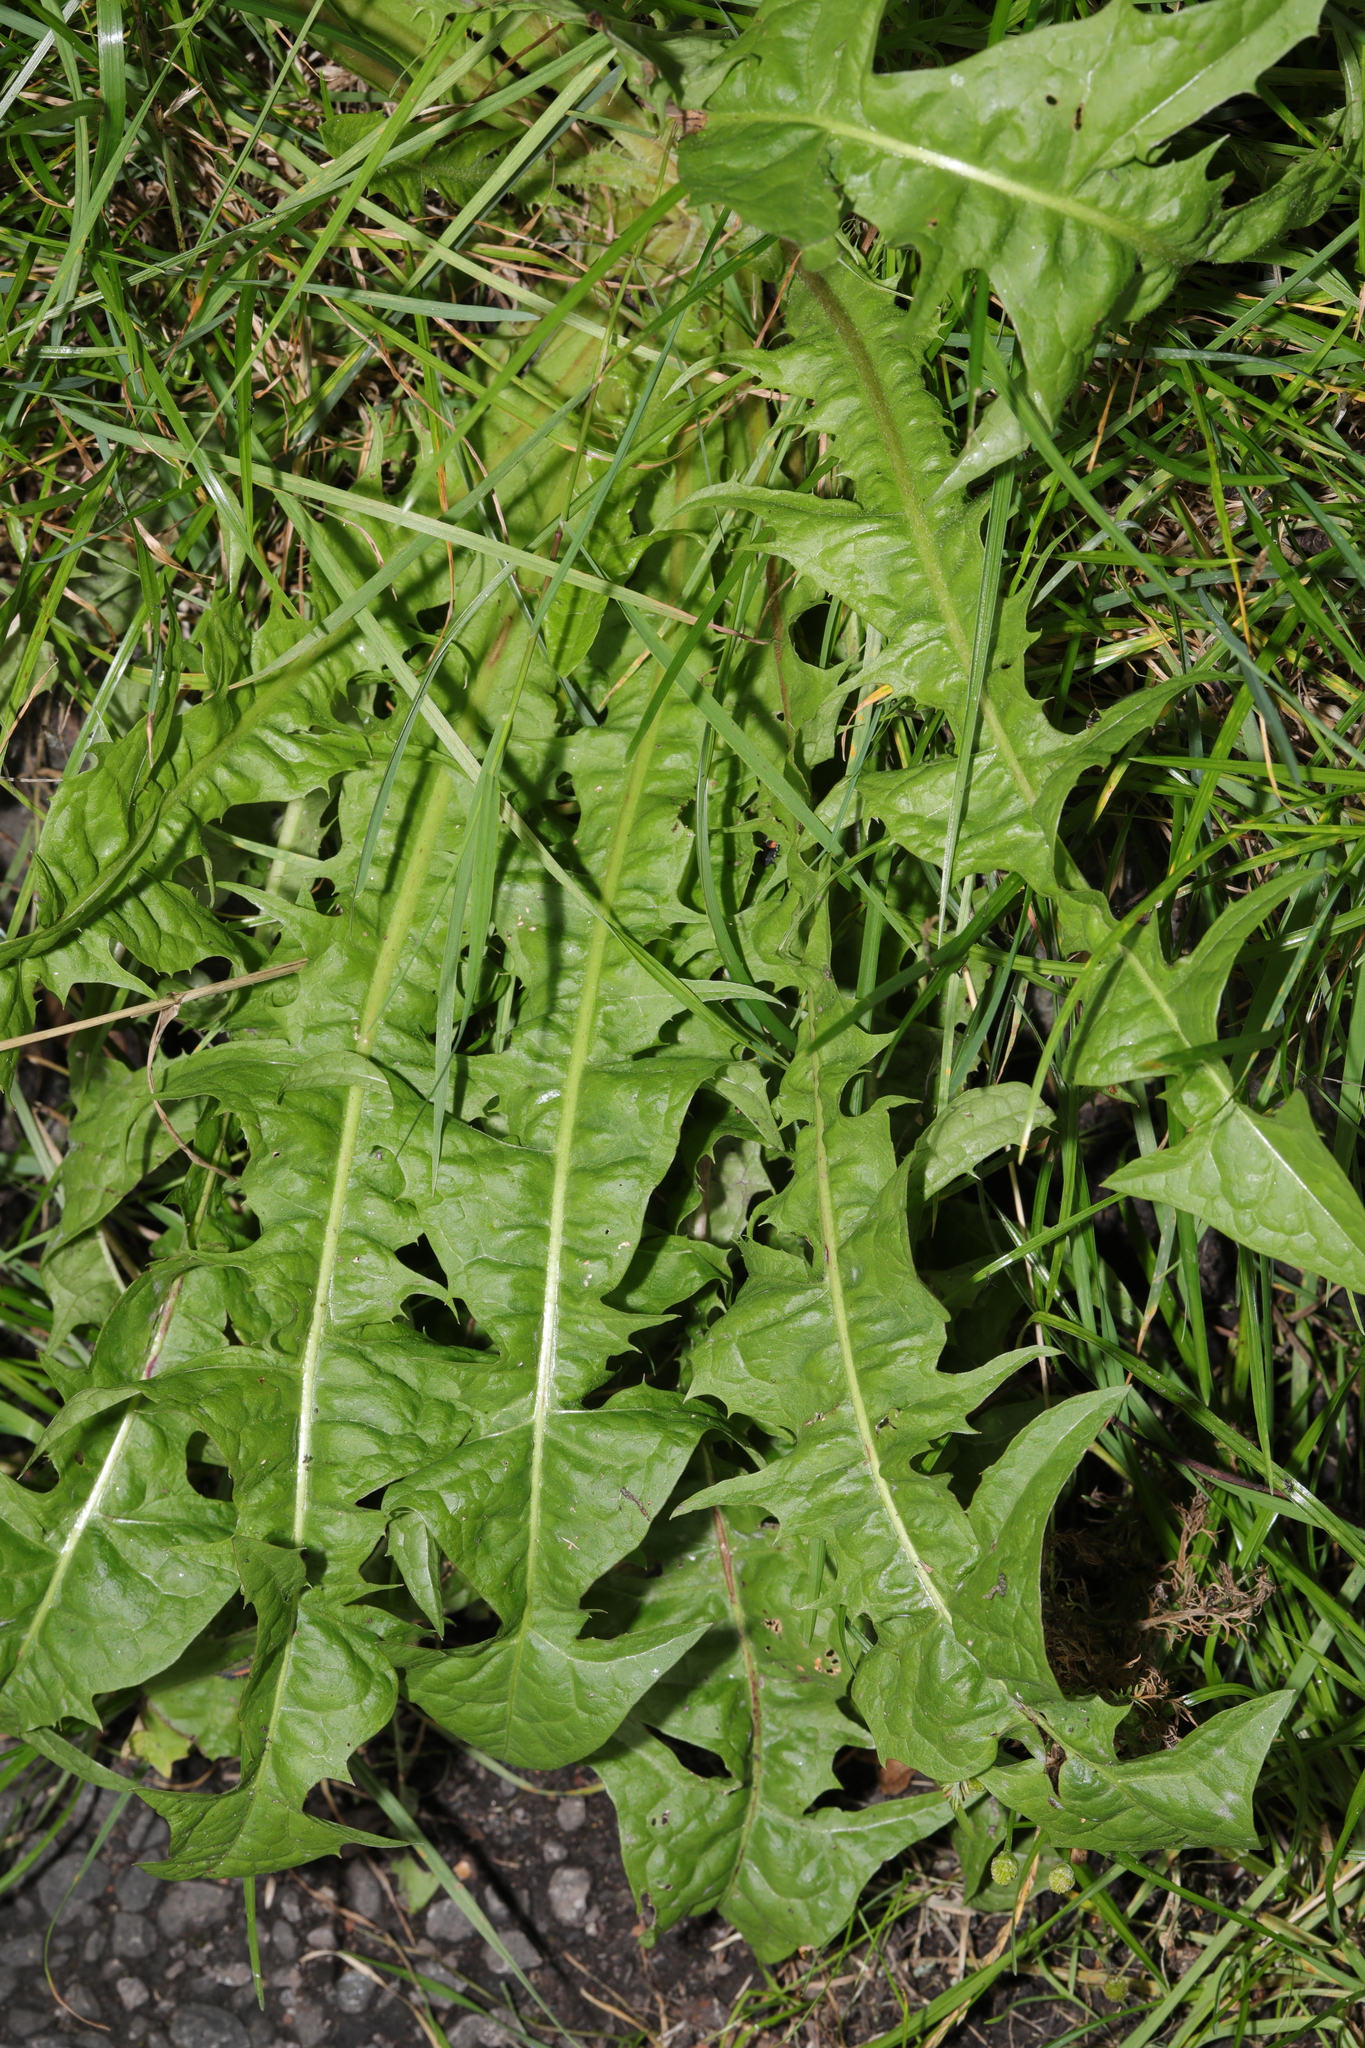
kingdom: Plantae
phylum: Tracheophyta
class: Magnoliopsida
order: Asterales
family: Asteraceae
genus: Taraxacum
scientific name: Taraxacum officinale
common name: Common dandelion
